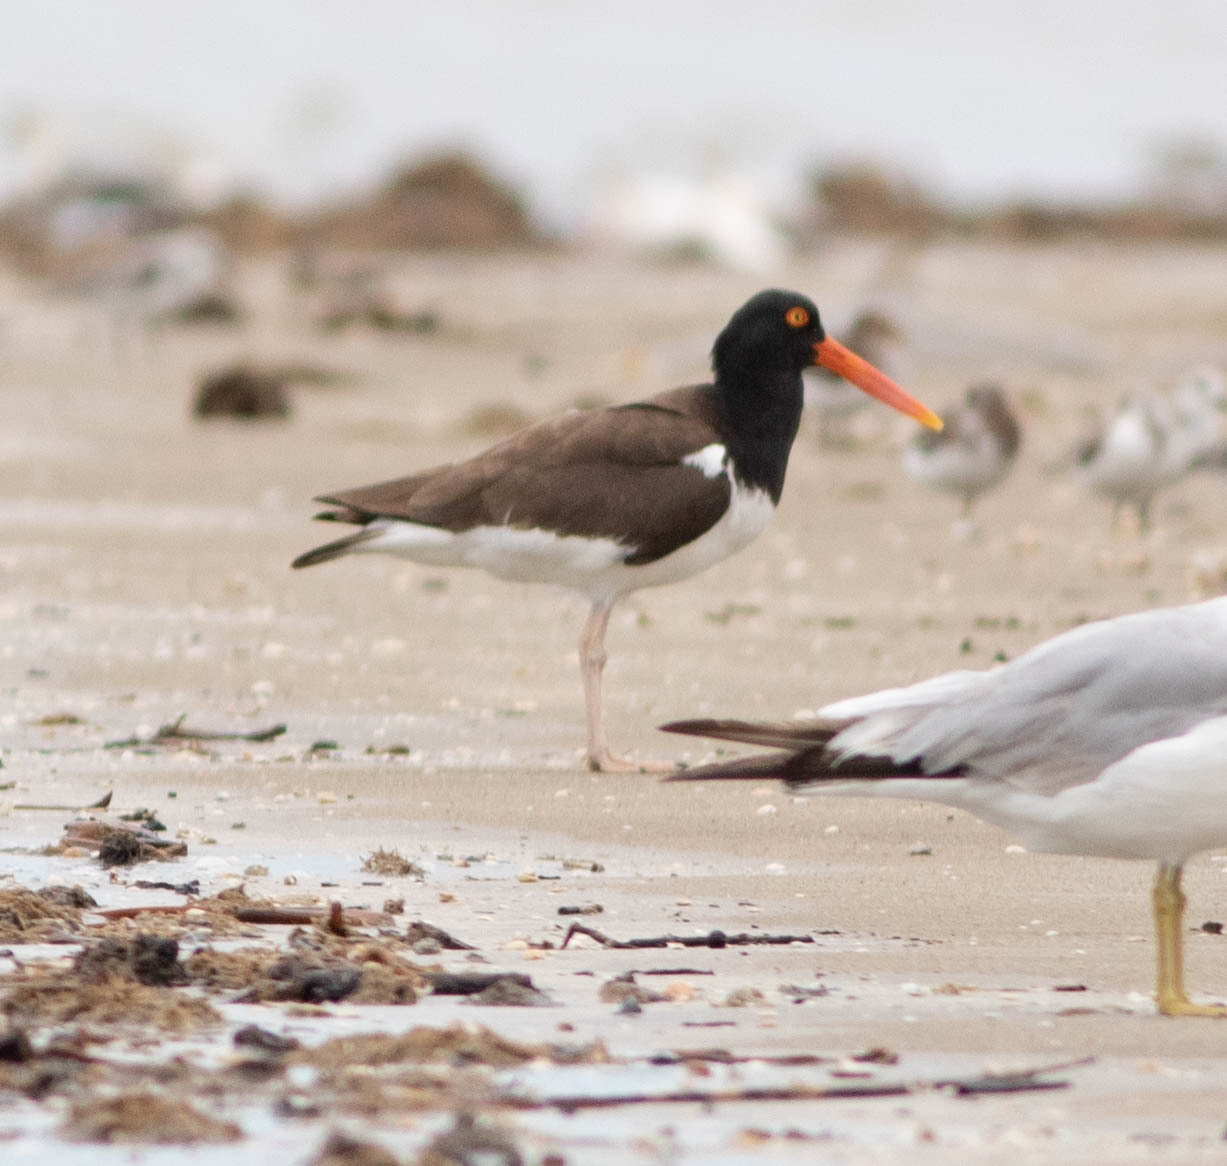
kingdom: Animalia
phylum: Chordata
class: Aves
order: Charadriiformes
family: Haematopodidae
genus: Haematopus
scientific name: Haematopus palliatus
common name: American oystercatcher
